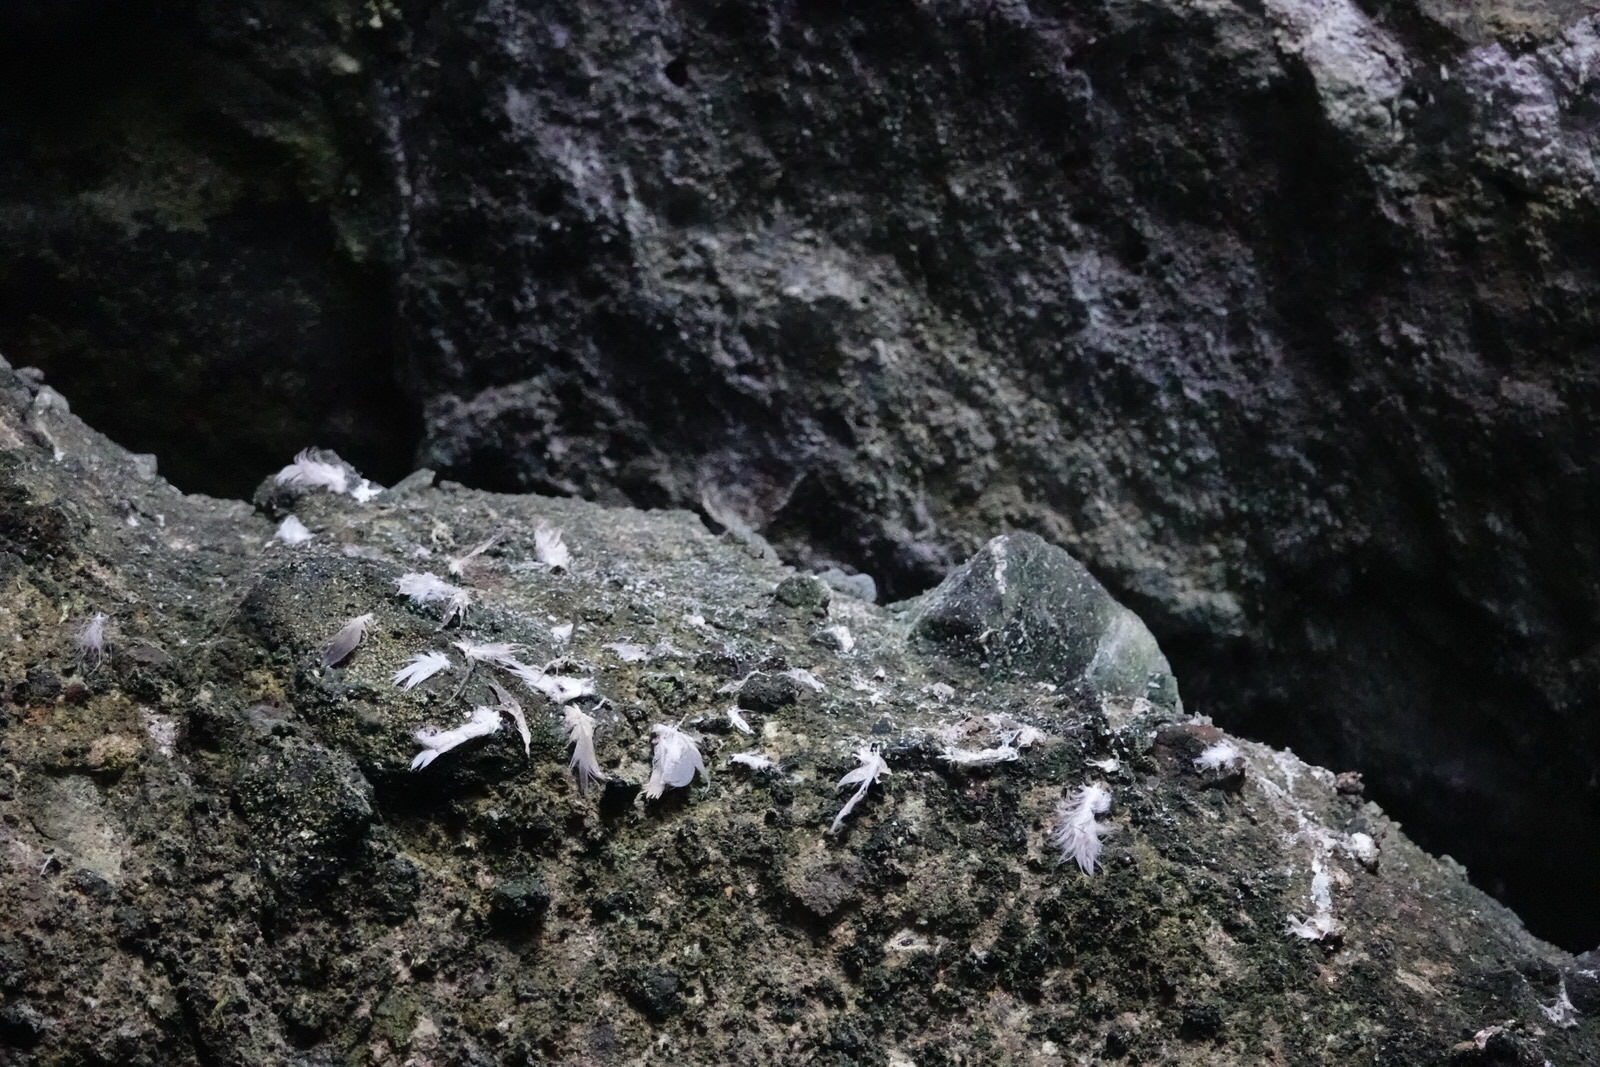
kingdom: Animalia
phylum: Chordata
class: Aves
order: Charadriiformes
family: Laridae
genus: Chroicocephalus
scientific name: Chroicocephalus novaehollandiae
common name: Silver gull
